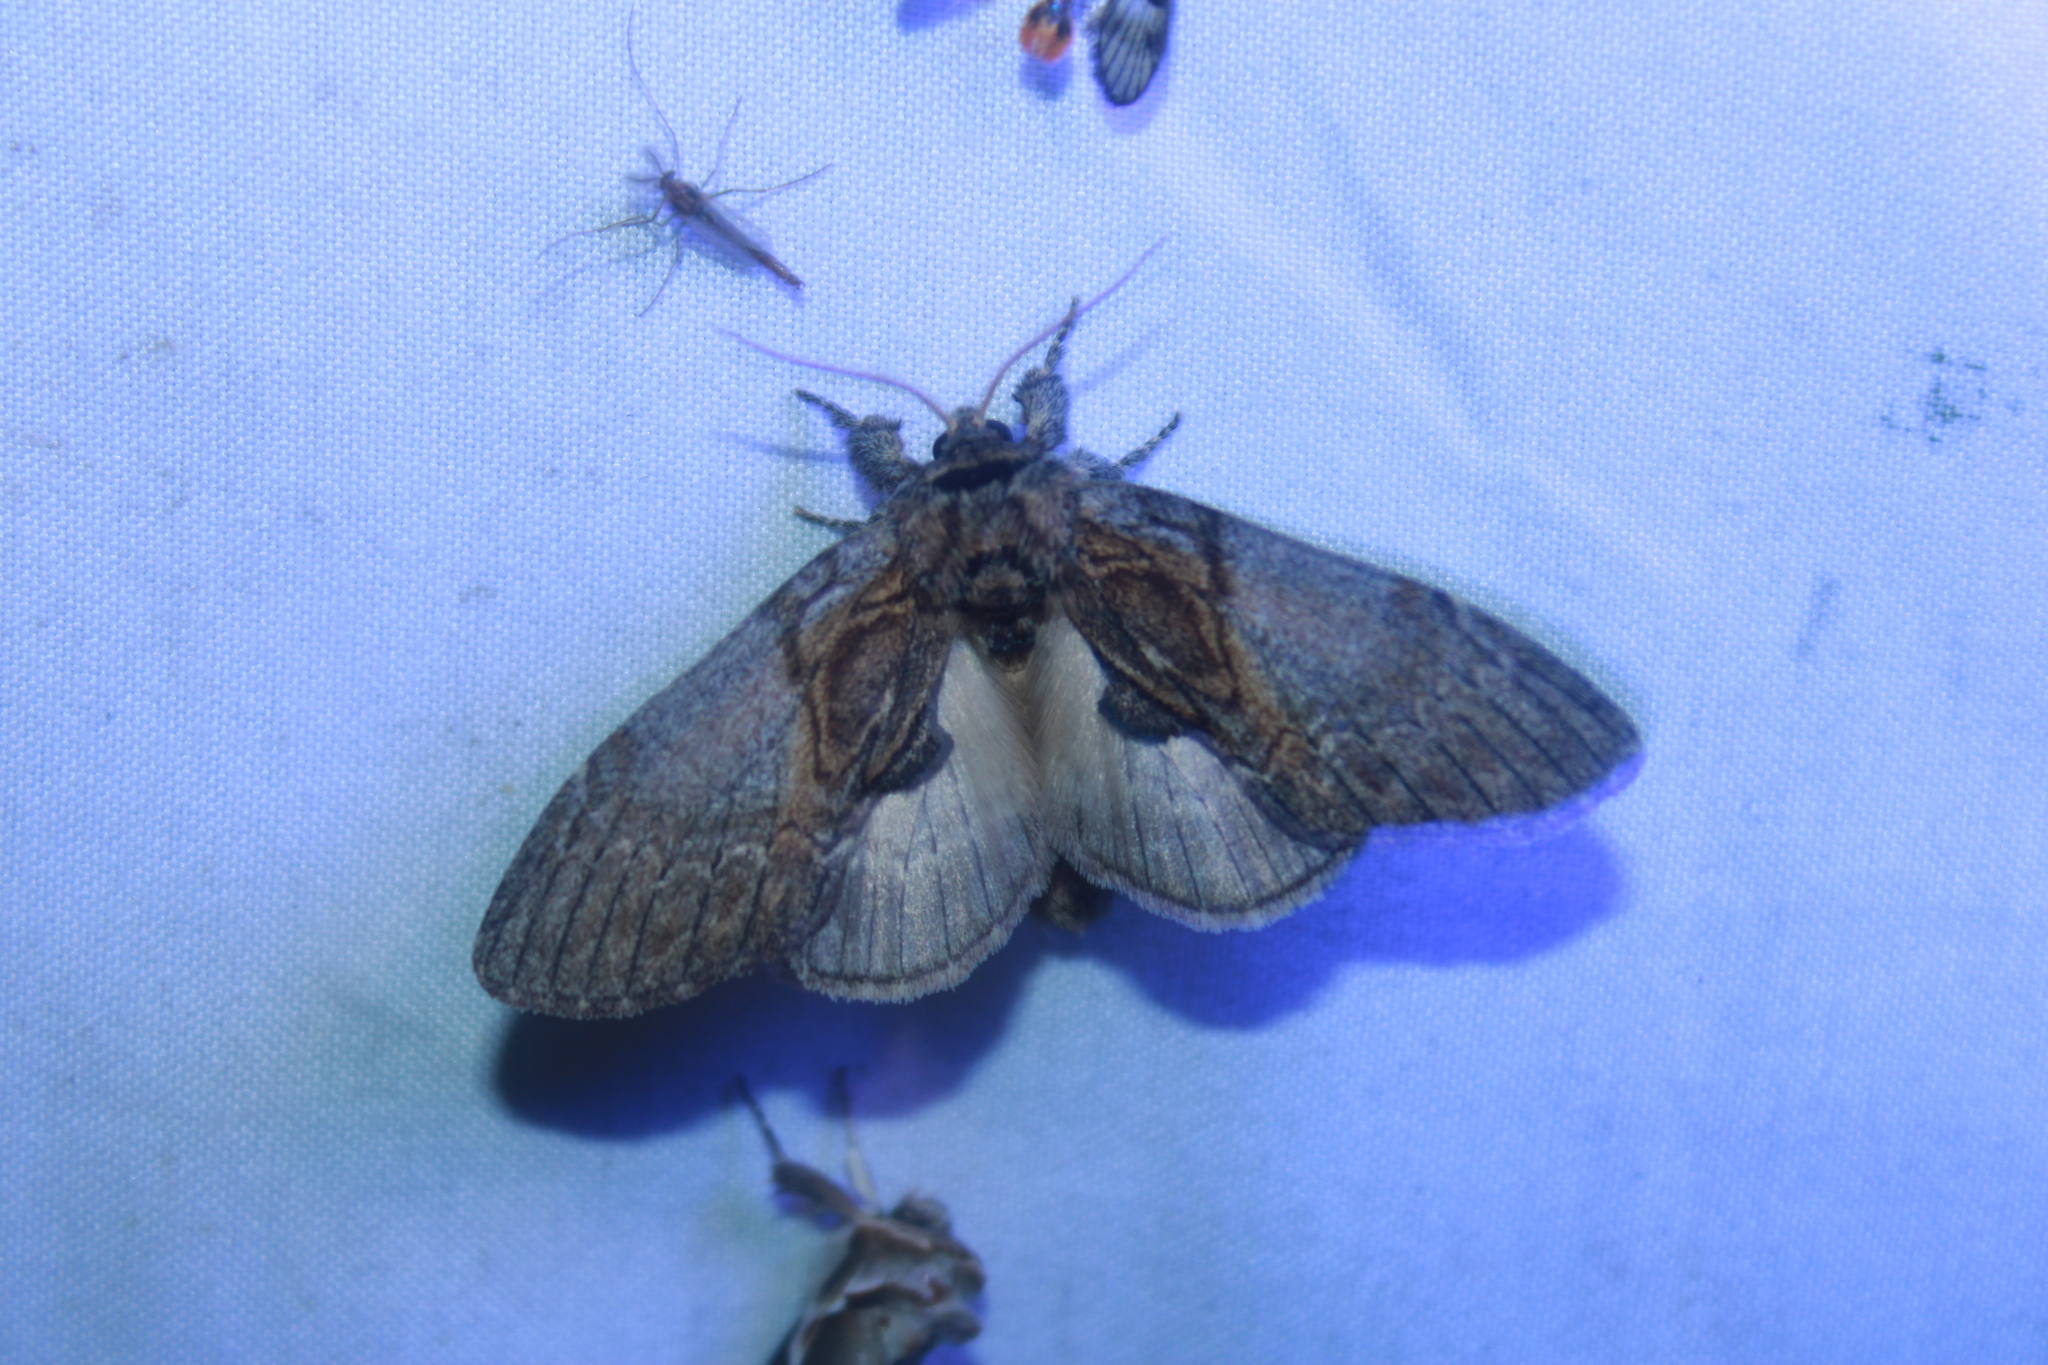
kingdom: Animalia
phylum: Arthropoda
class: Insecta
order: Lepidoptera
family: Notodontidae
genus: Peridea
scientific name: Peridea basitriens
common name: Oval-based prominent
